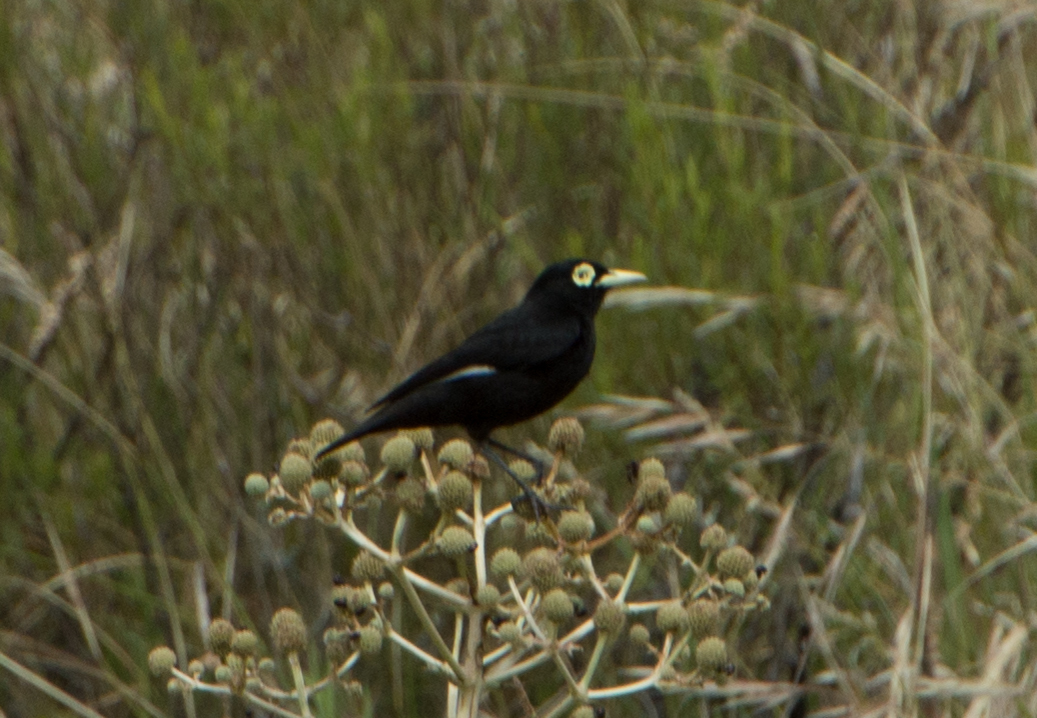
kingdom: Animalia
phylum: Chordata
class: Aves
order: Passeriformes
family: Tyrannidae
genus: Hymenops
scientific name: Hymenops perspicillatus
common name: Spectacled tyrant
